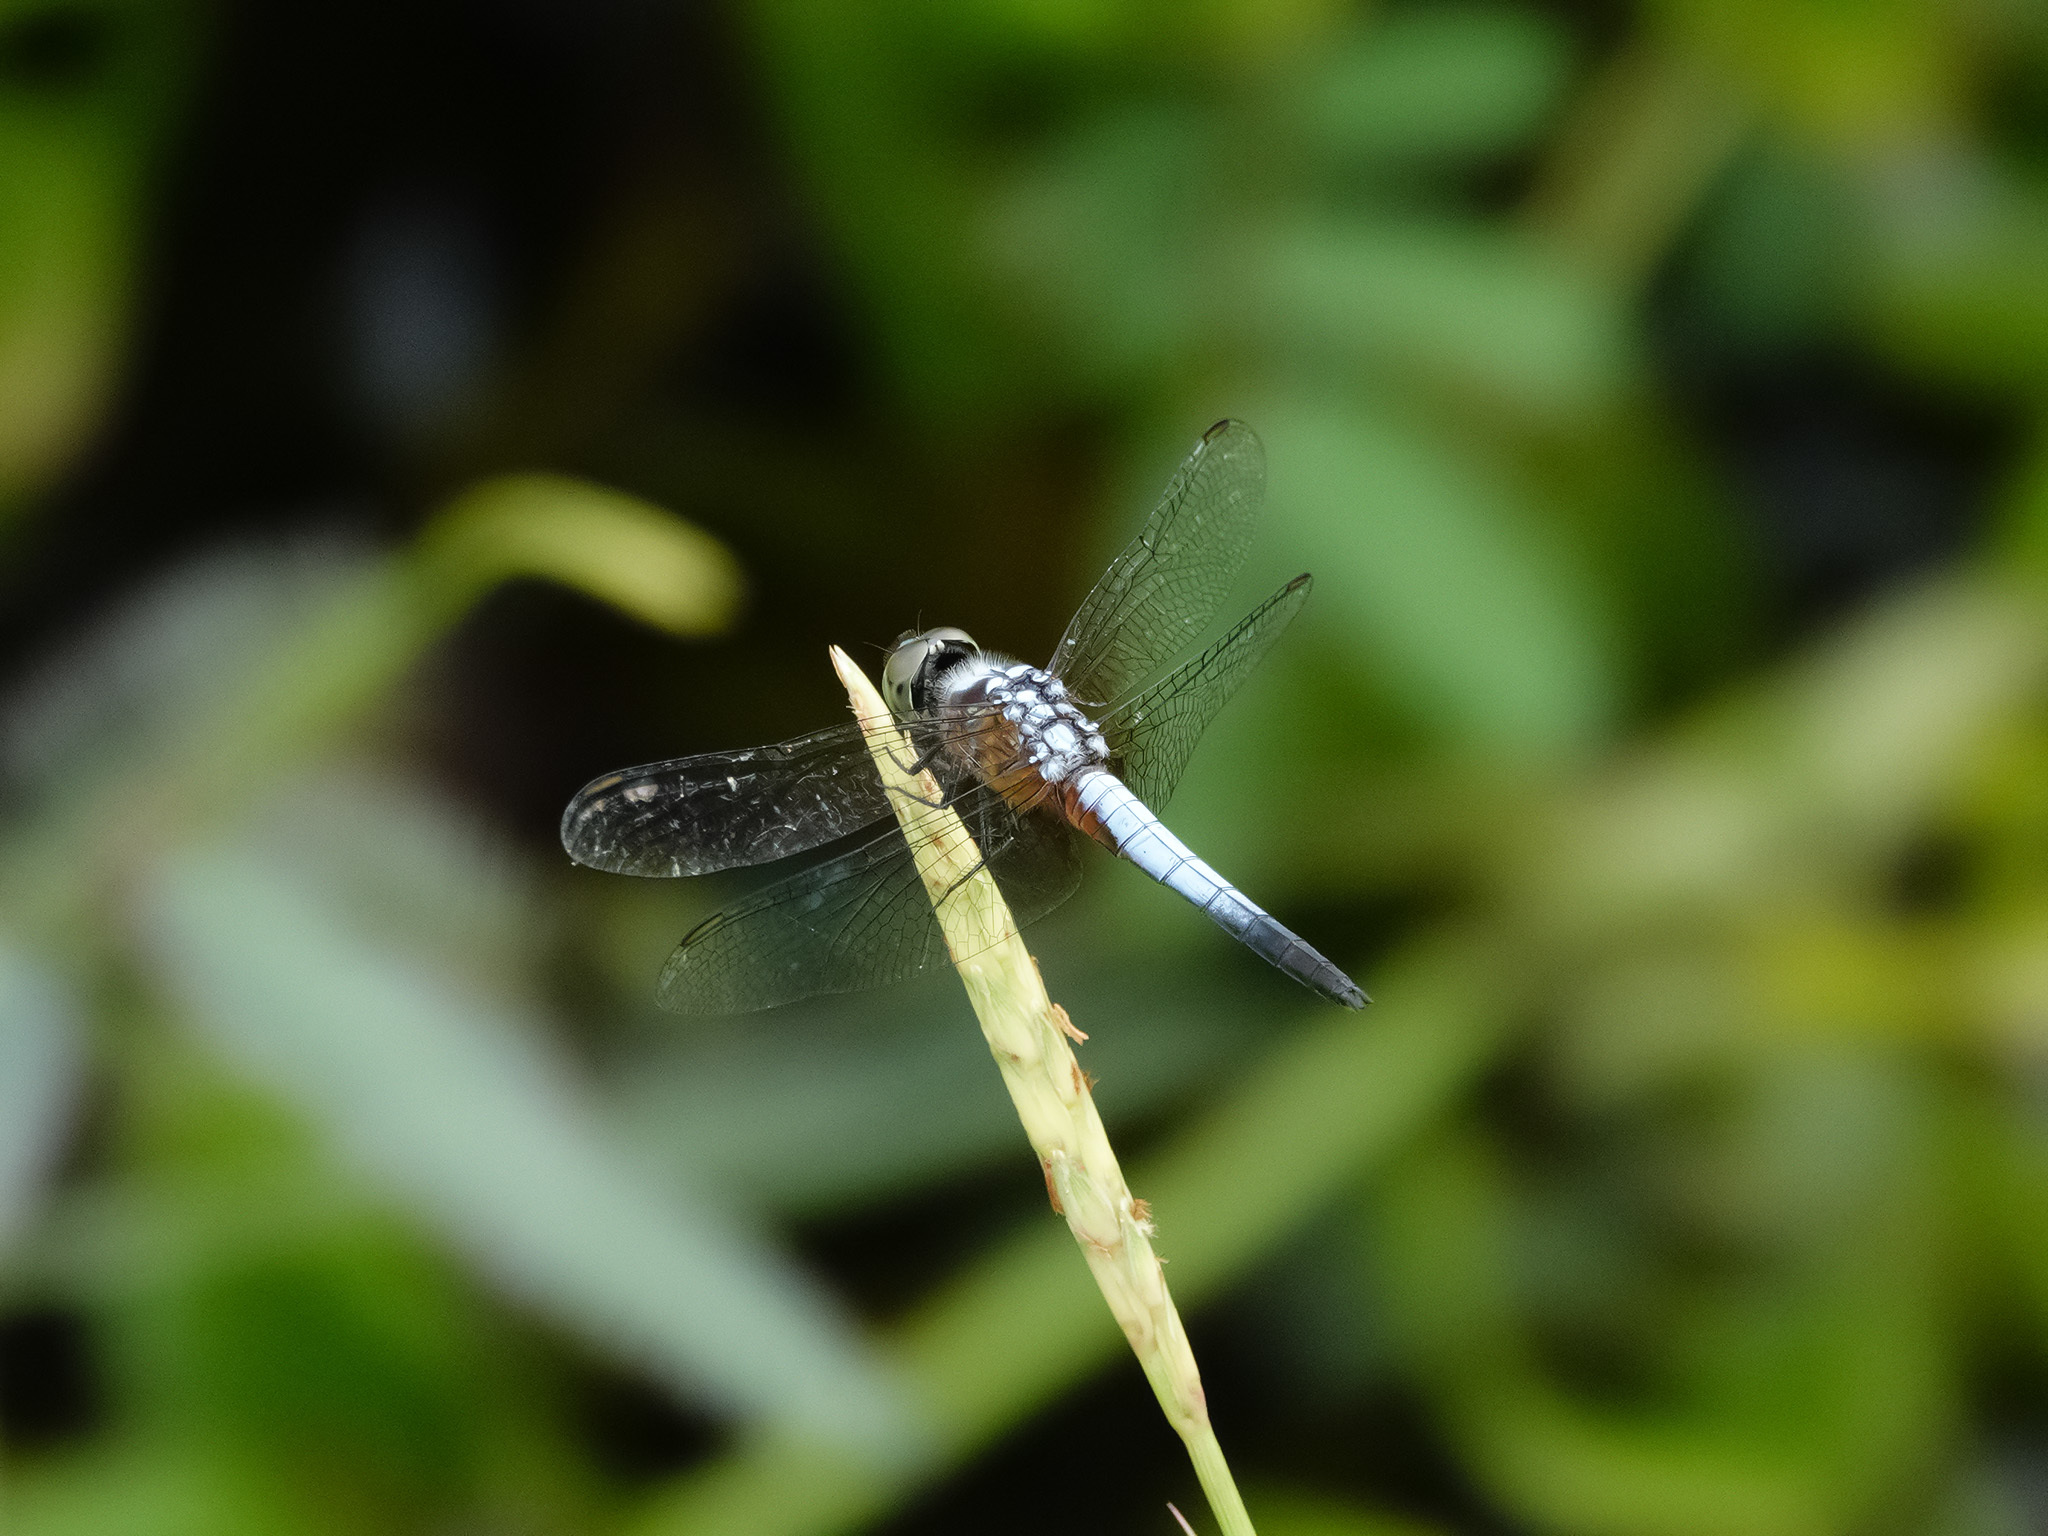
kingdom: Animalia
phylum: Arthropoda
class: Insecta
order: Odonata
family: Libellulidae
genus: Brachydiplax
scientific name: Brachydiplax chalybea
